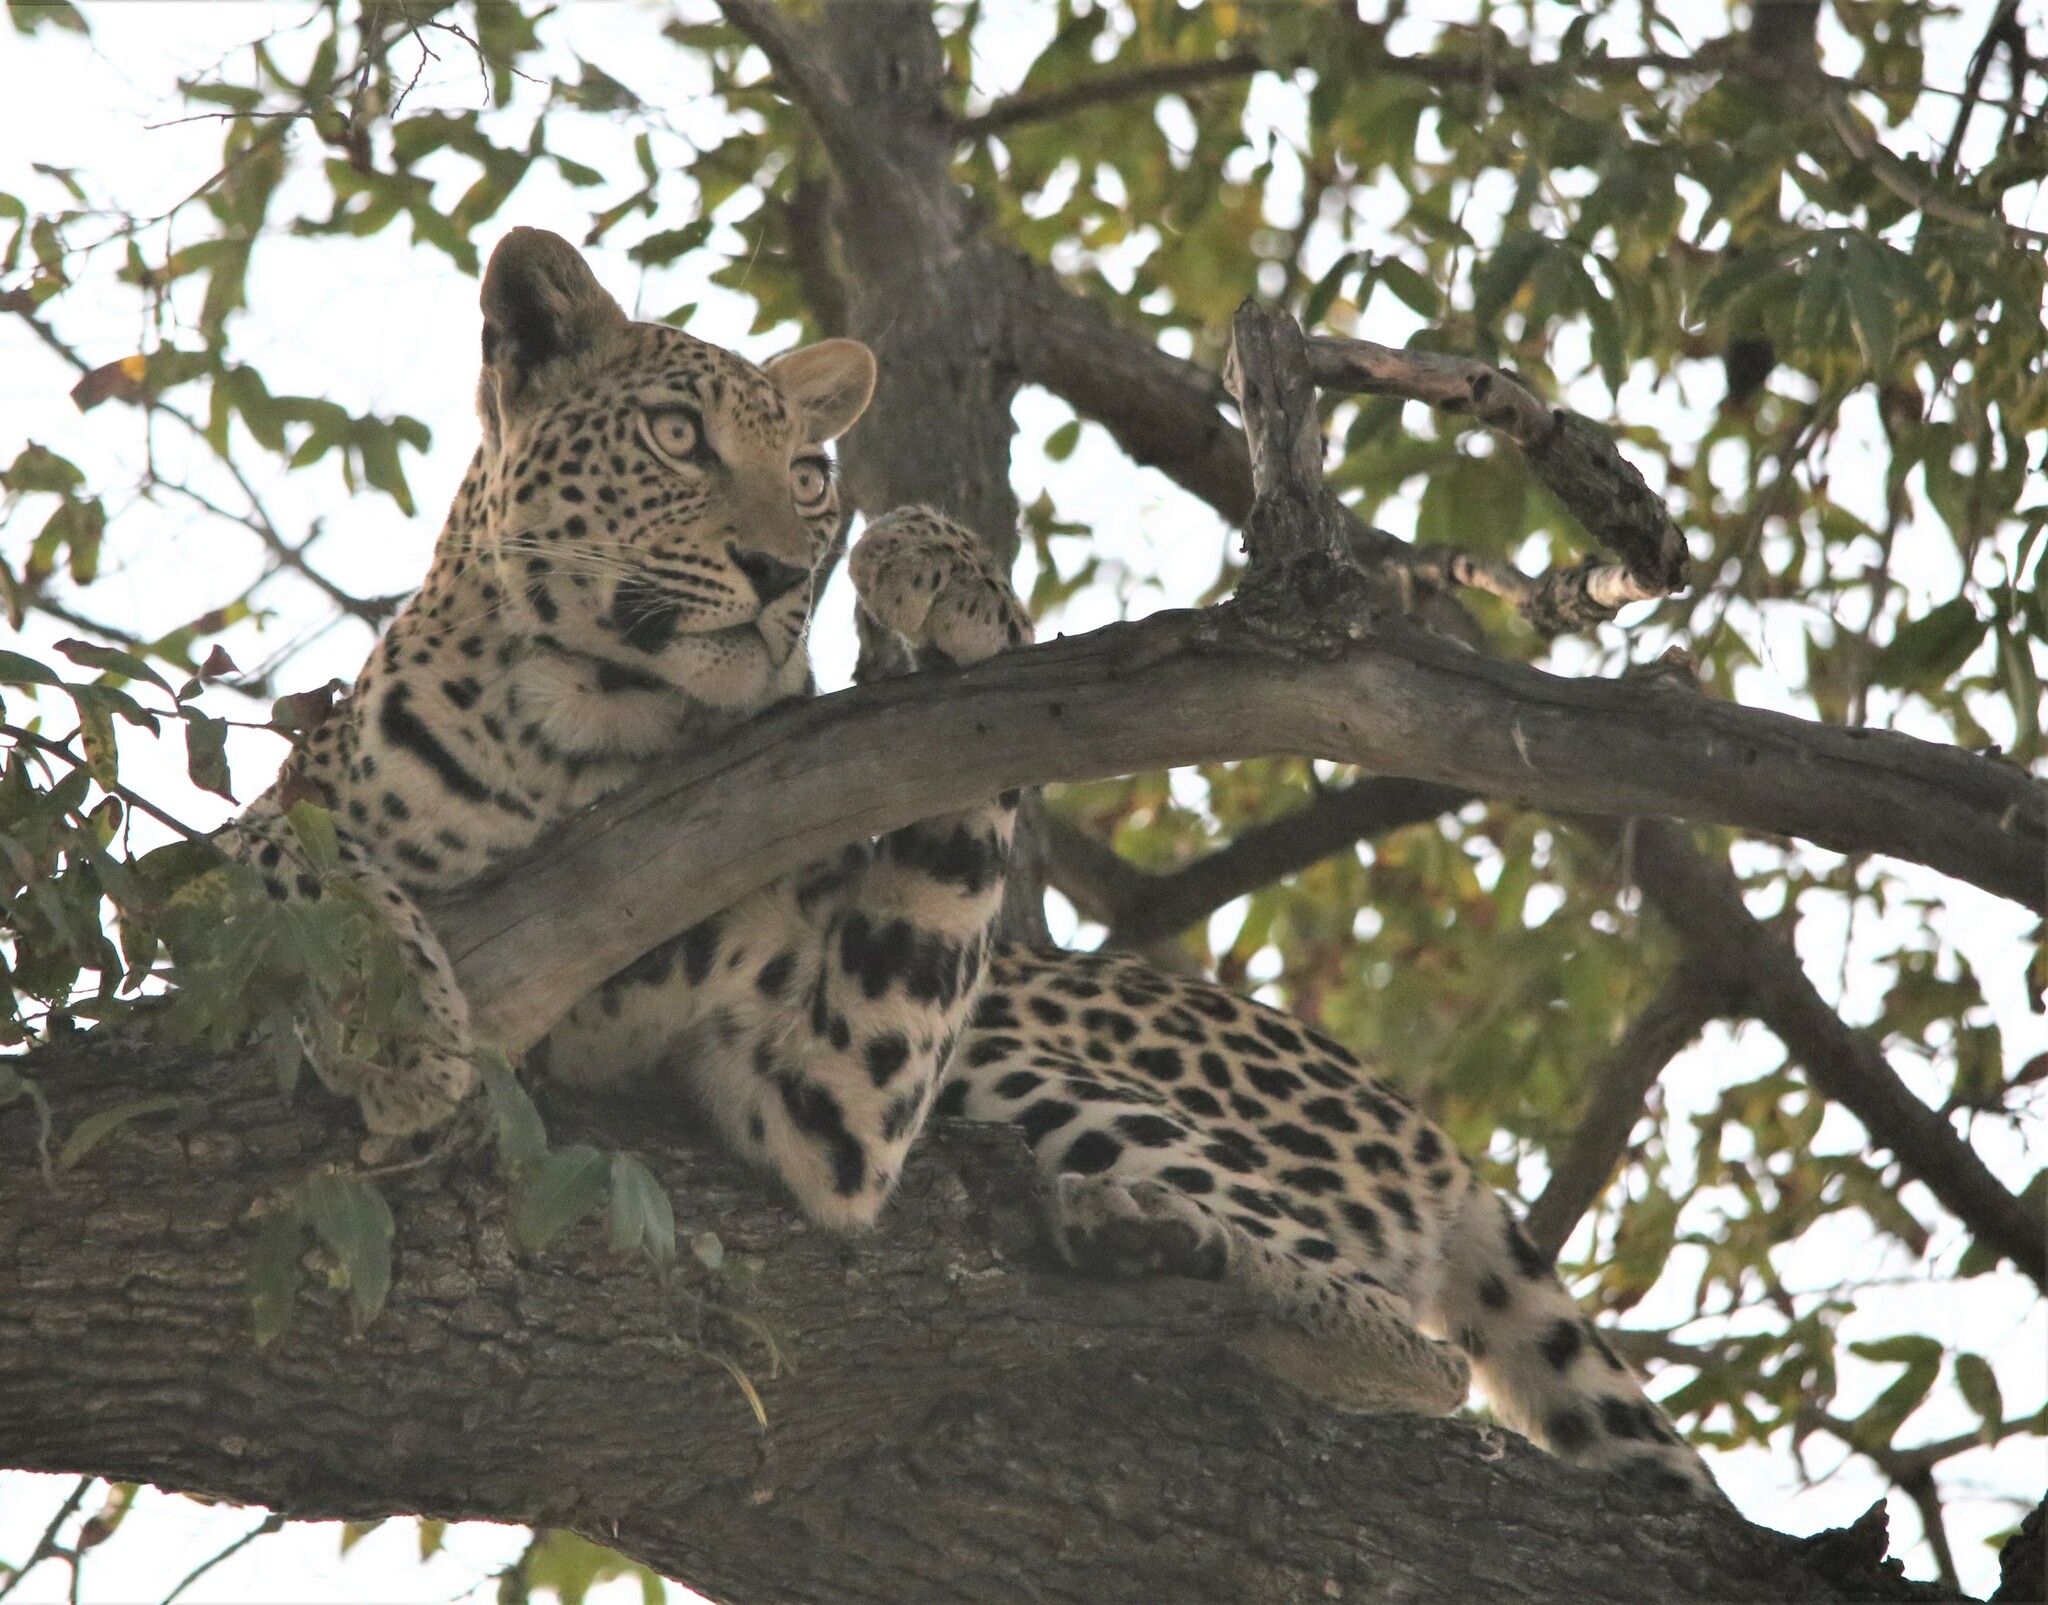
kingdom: Animalia
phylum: Chordata
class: Mammalia
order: Carnivora
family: Felidae
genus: Panthera
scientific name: Panthera pardus
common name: Leopard
